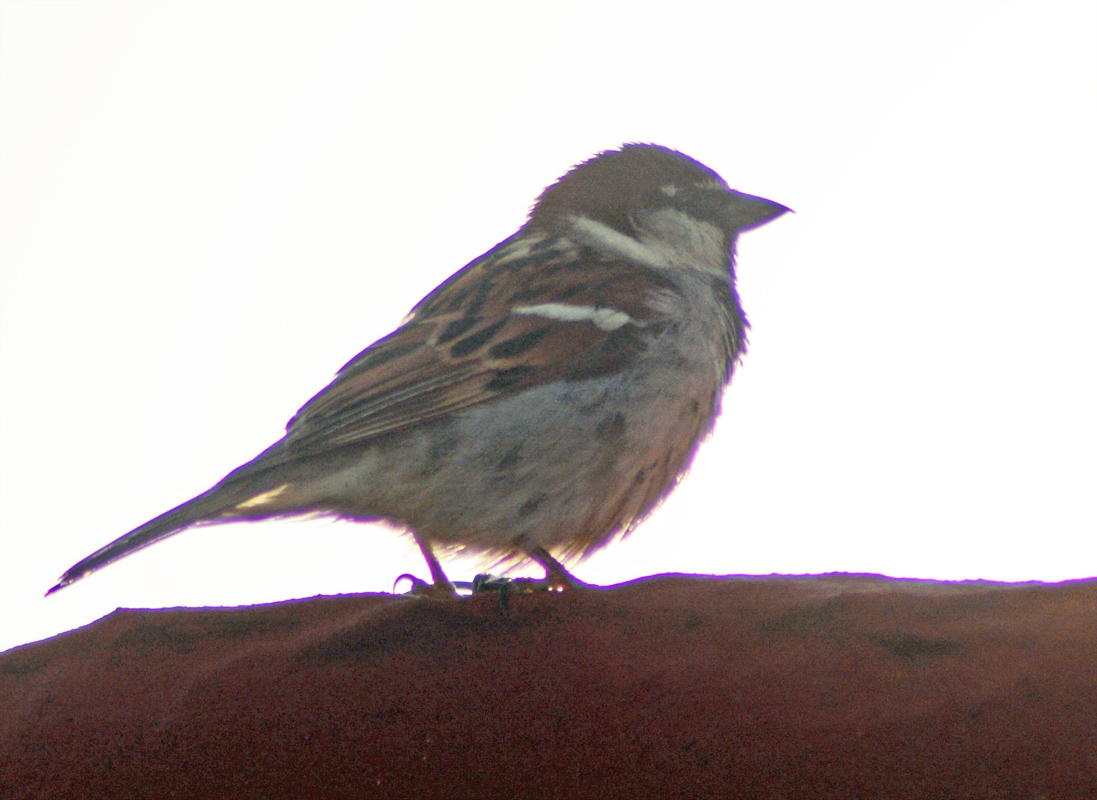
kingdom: Animalia
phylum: Chordata
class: Aves
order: Passeriformes
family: Passeridae
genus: Passer
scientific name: Passer domesticus
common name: House sparrow
